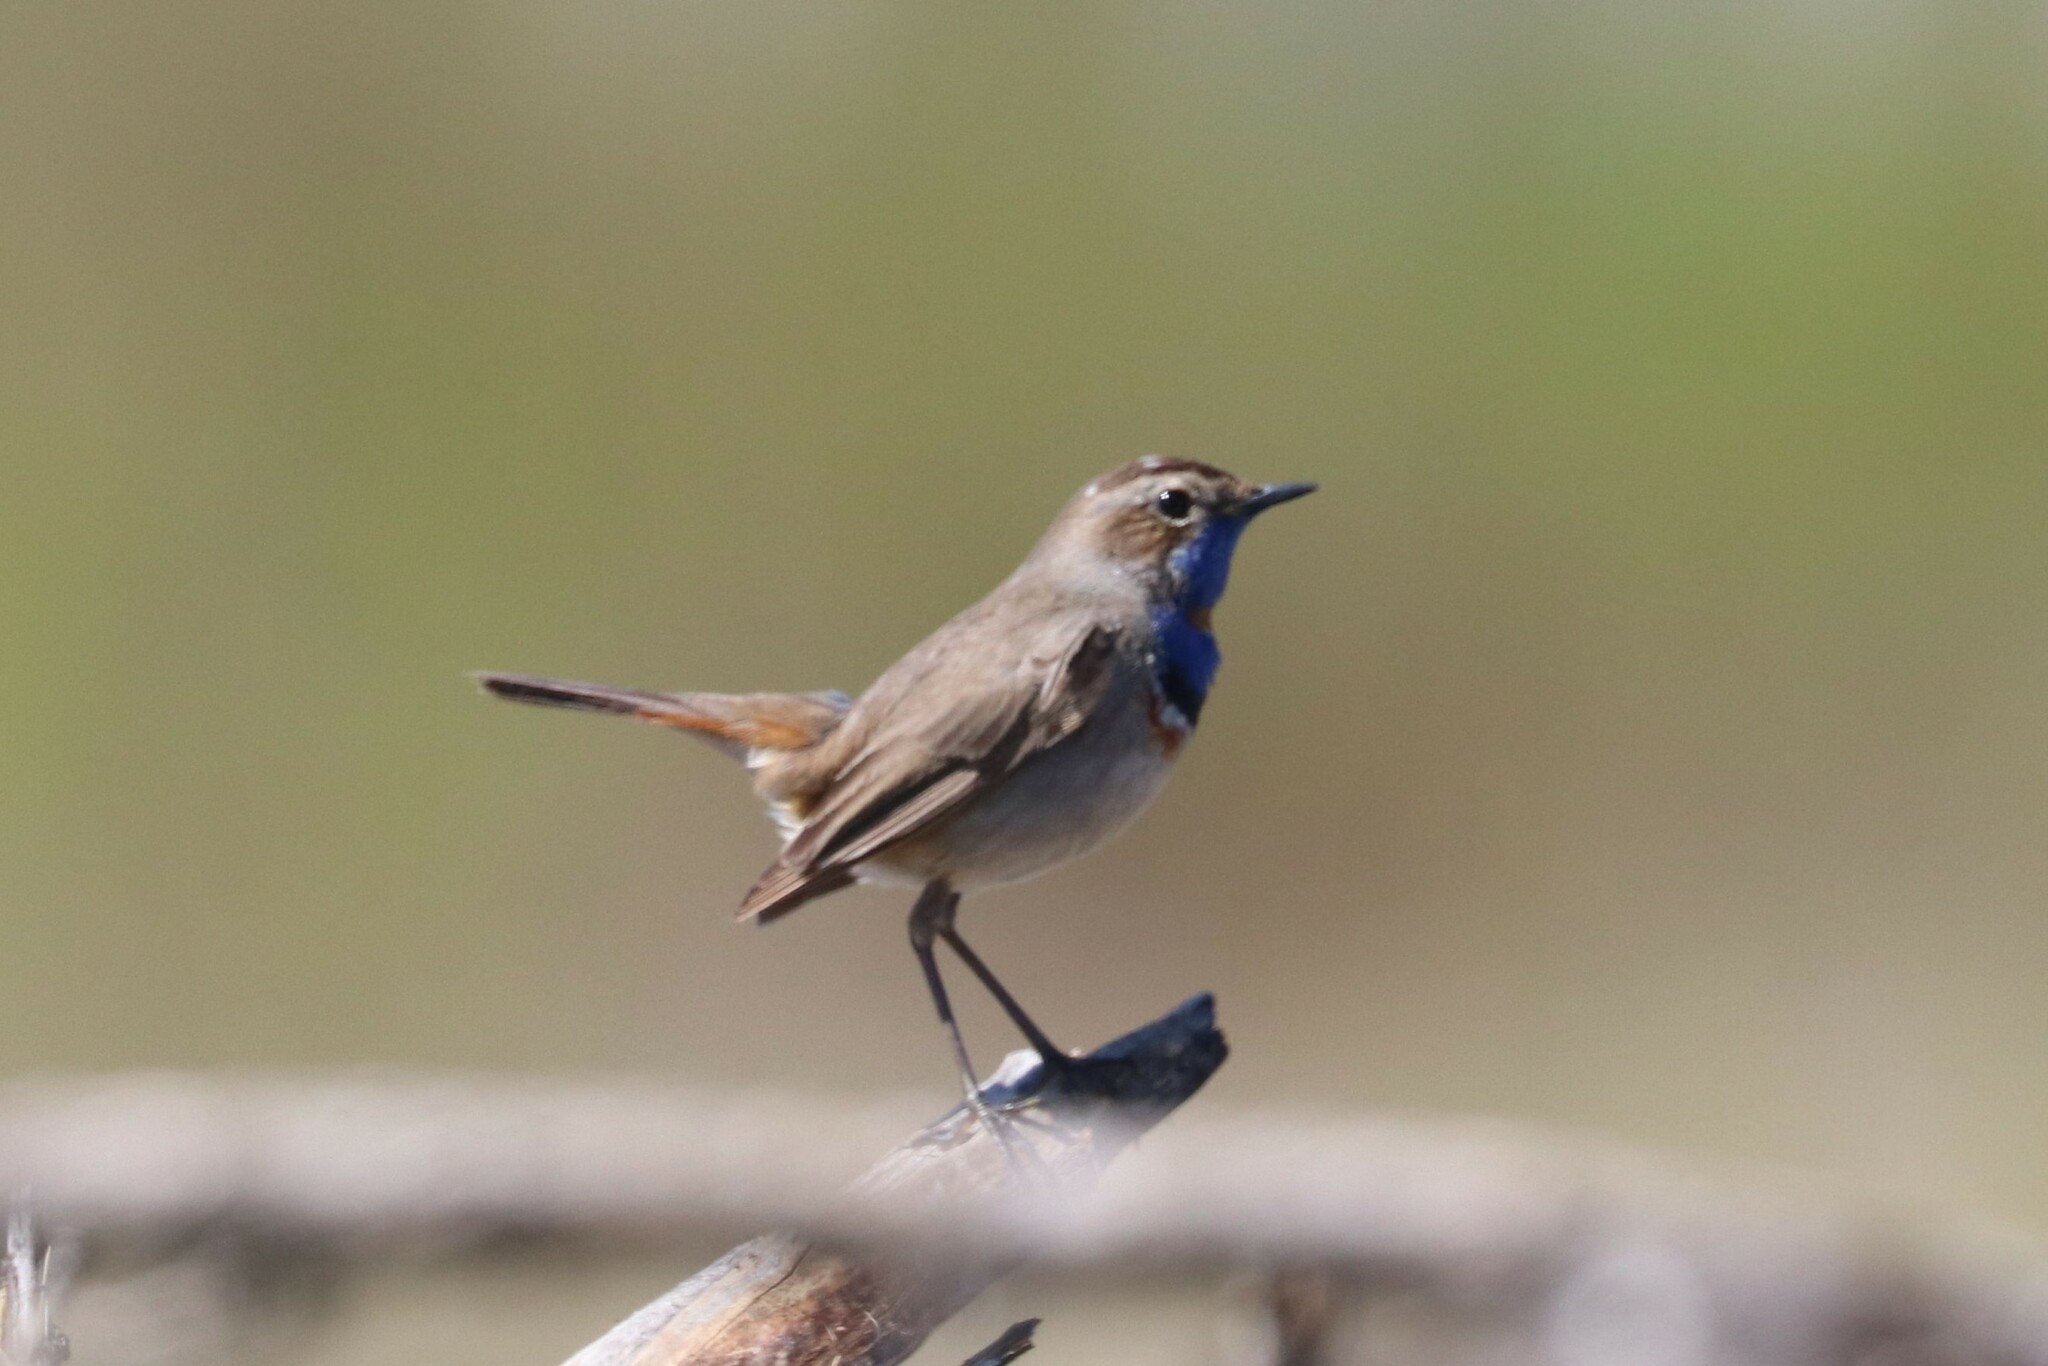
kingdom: Animalia
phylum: Chordata
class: Aves
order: Passeriformes
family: Muscicapidae
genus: Luscinia
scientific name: Luscinia svecica
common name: Bluethroat
